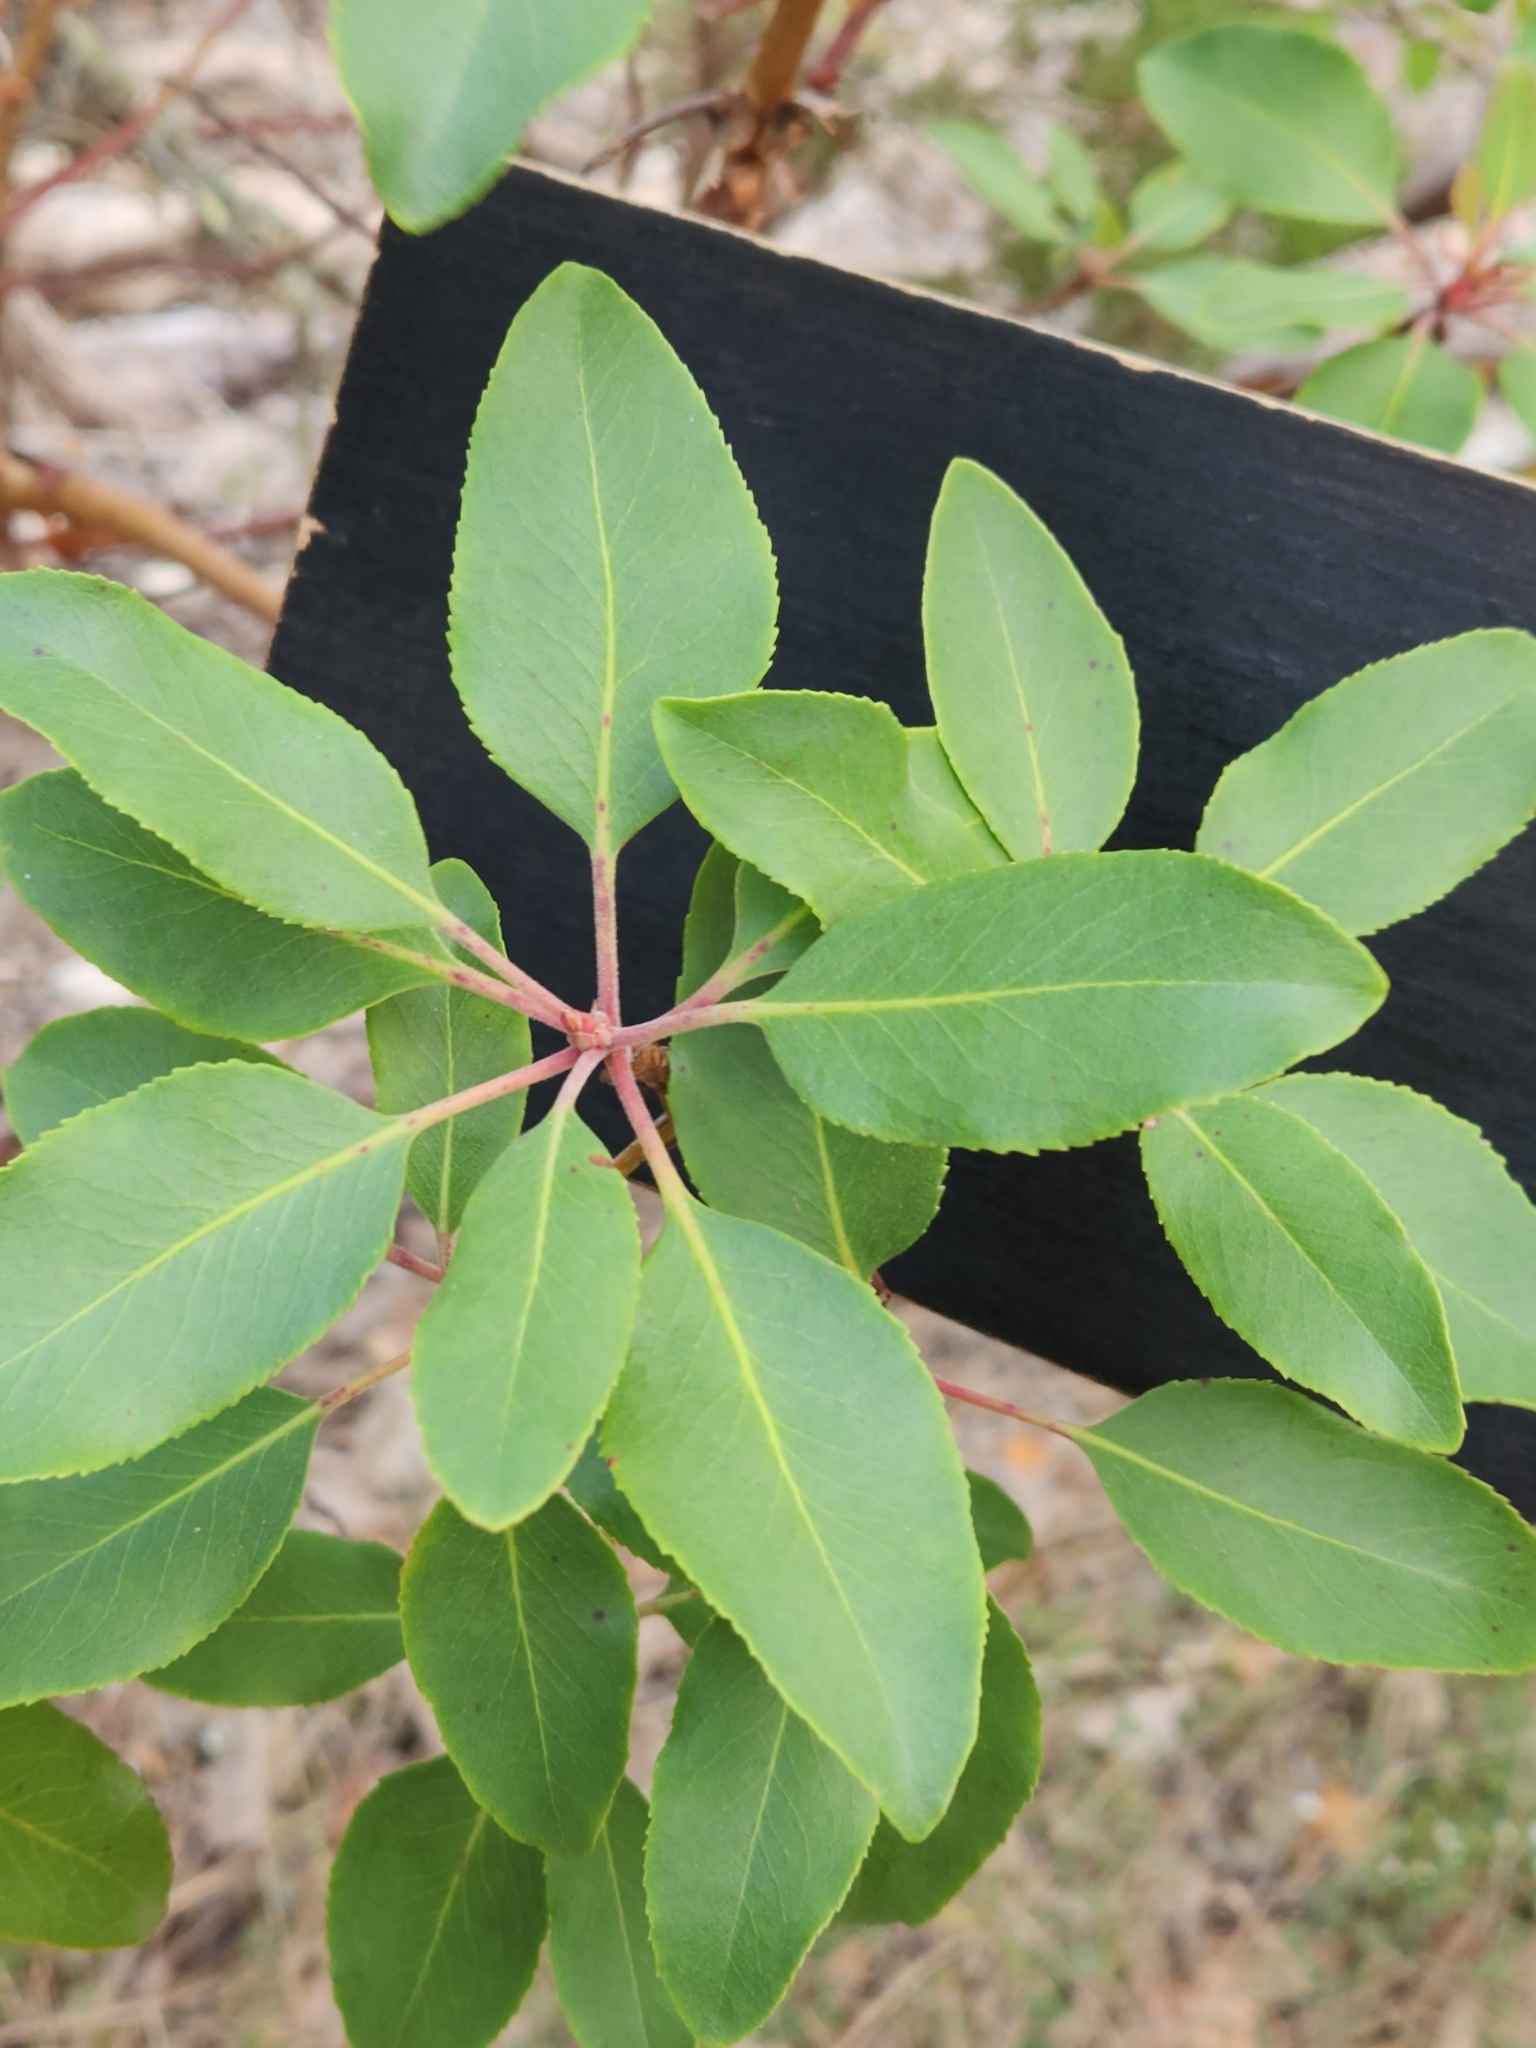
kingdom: Plantae
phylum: Tracheophyta
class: Magnoliopsida
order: Ericales
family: Ericaceae
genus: Arbutus
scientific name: Arbutus xalapensis
